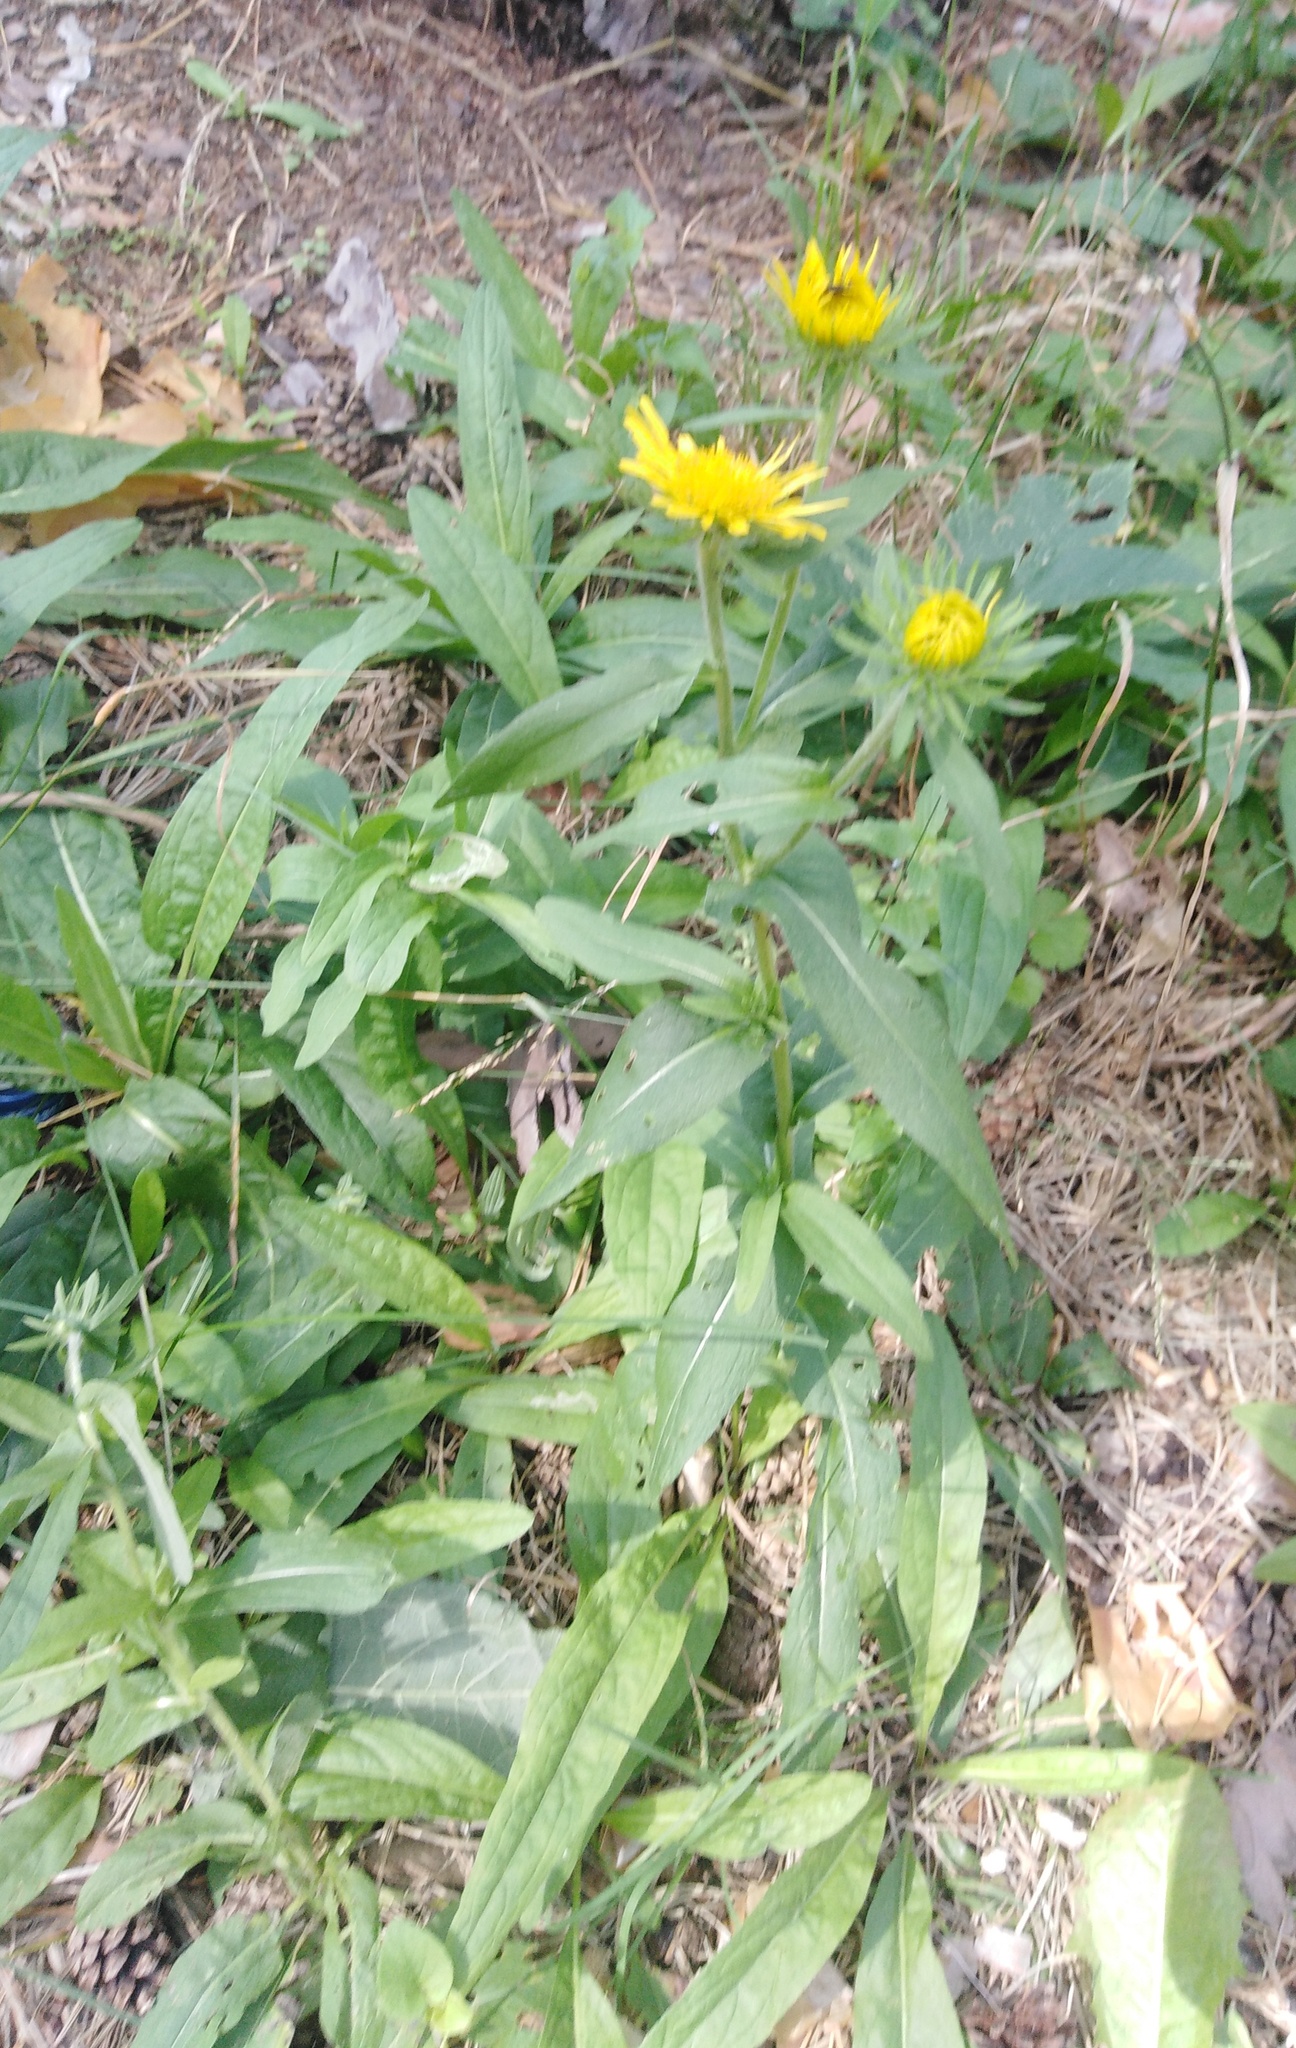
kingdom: Plantae
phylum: Tracheophyta
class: Magnoliopsida
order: Asterales
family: Asteraceae
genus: Pentanema
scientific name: Pentanema britannicum
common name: British elecampane
